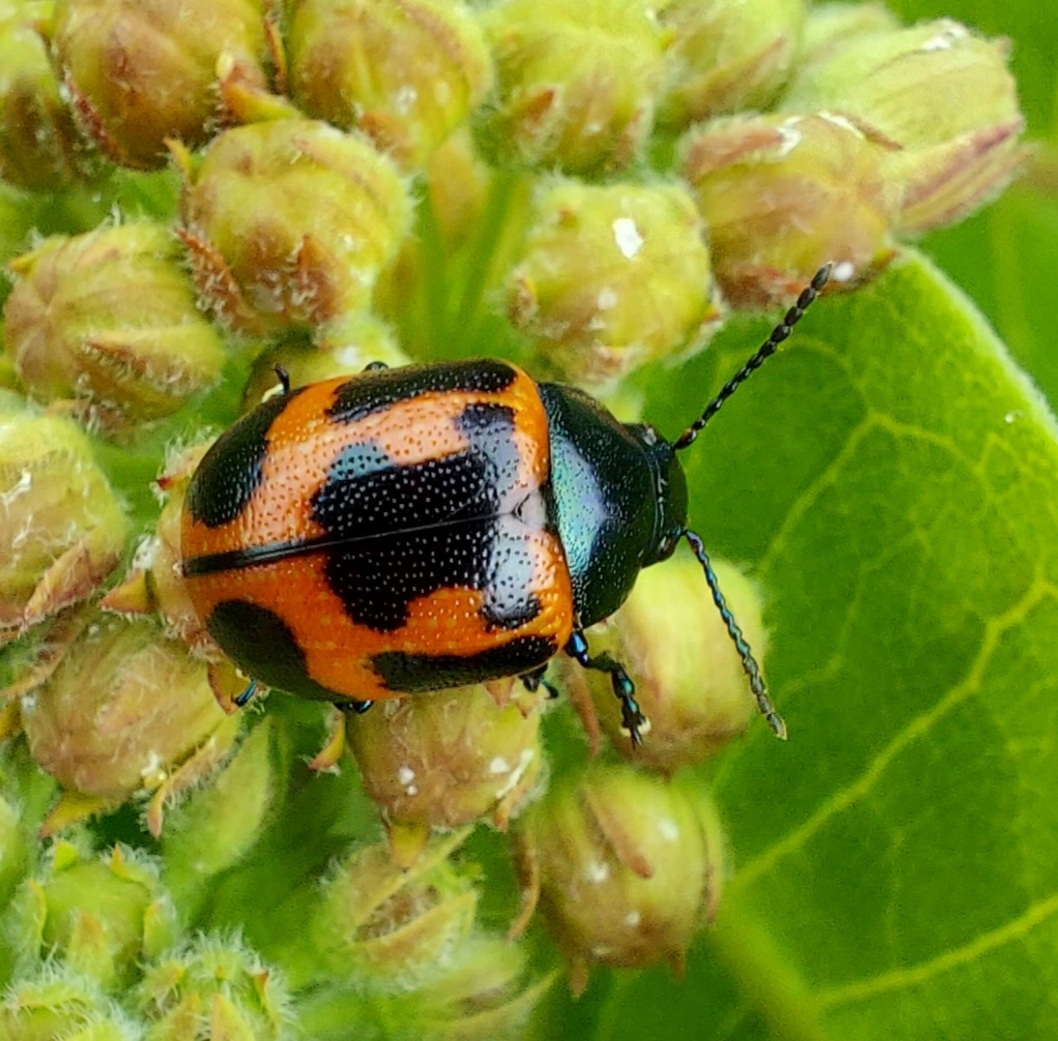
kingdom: Animalia
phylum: Arthropoda
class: Insecta
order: Coleoptera
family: Chrysomelidae
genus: Labidomera
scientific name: Labidomera clivicollis
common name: Swamp milkweed leaf beetle
